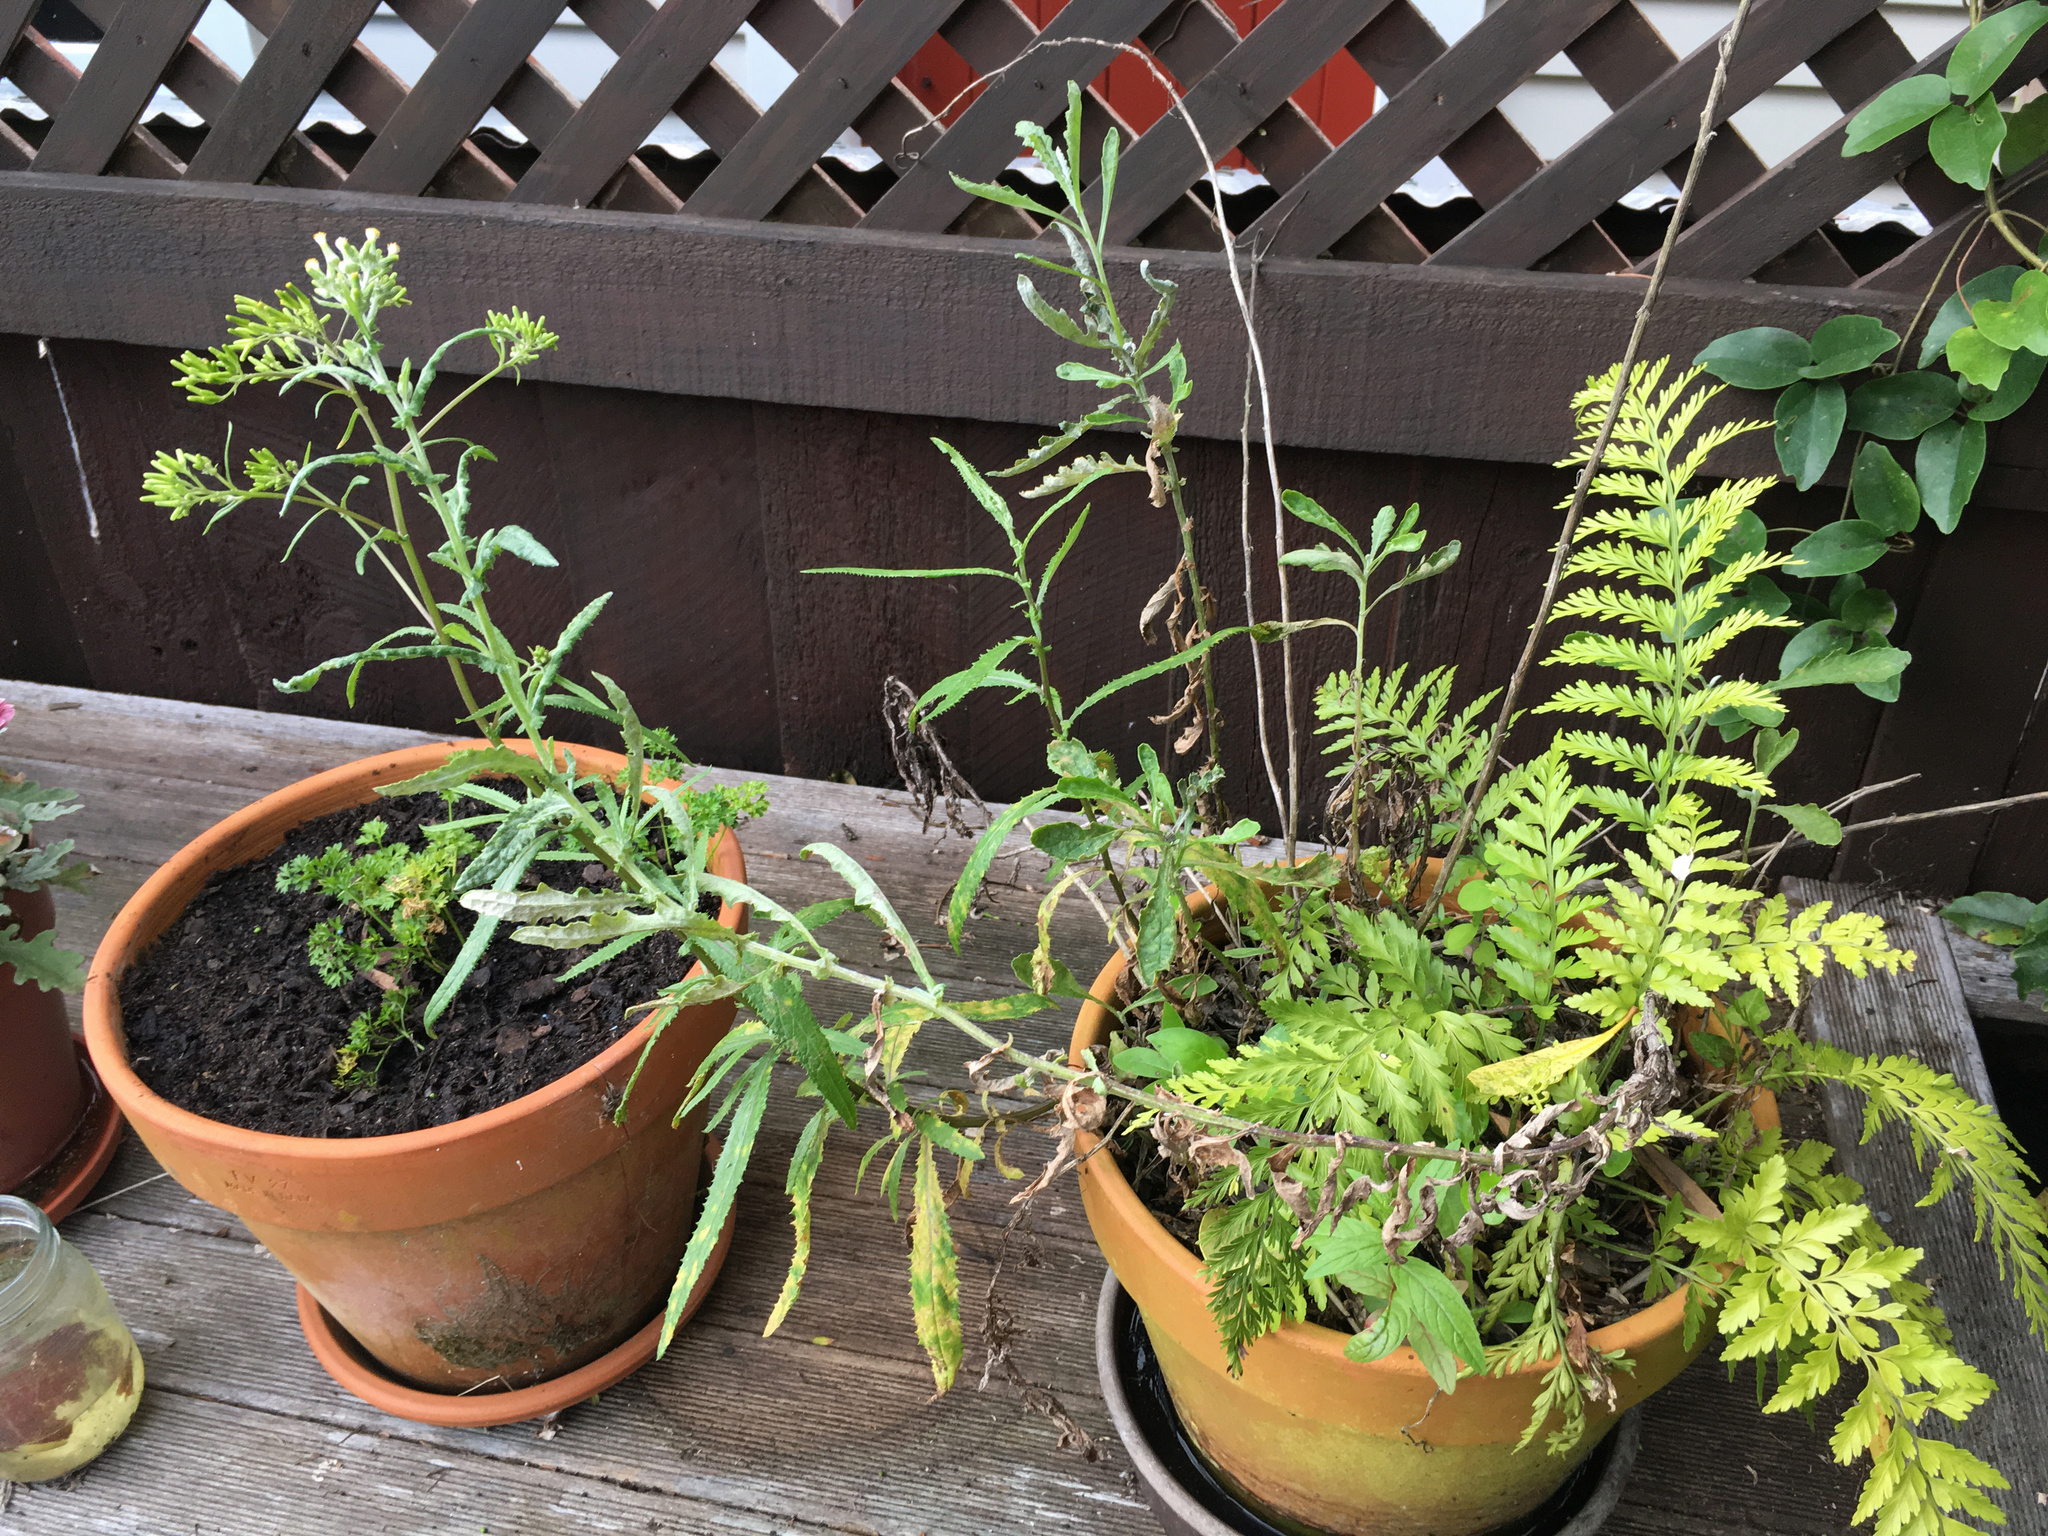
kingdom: Plantae
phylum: Tracheophyta
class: Magnoliopsida
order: Asterales
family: Asteraceae
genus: Senecio
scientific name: Senecio glomeratus
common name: Cutleaf burnweed
